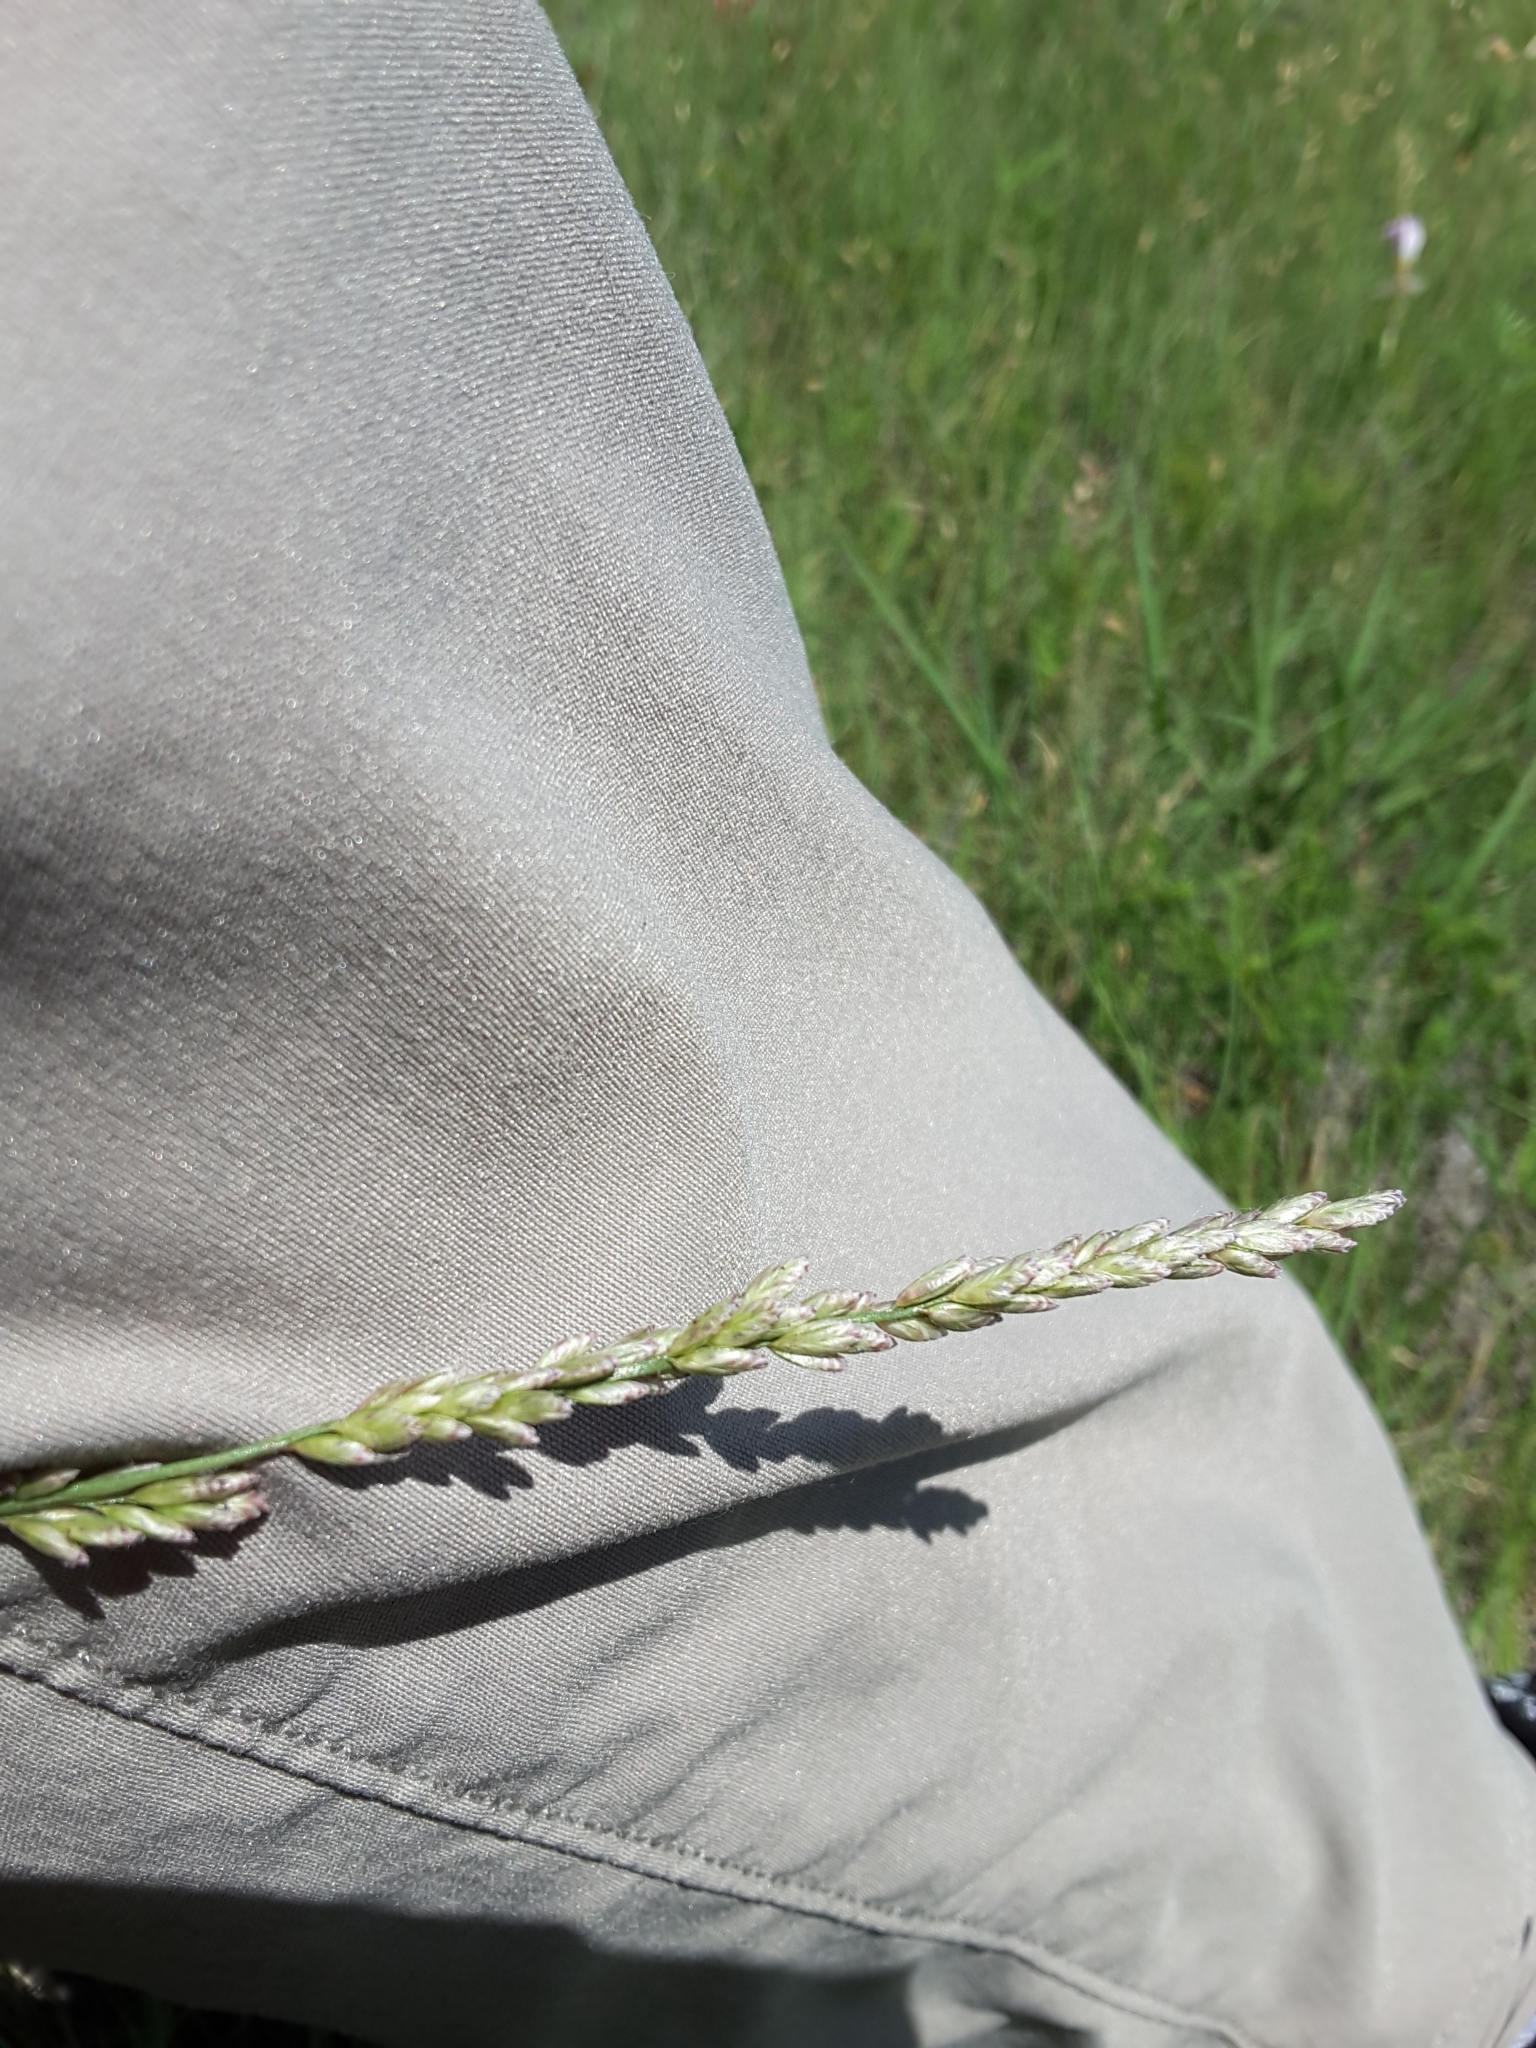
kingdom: Plantae
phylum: Tracheophyta
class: Liliopsida
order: Poales
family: Poaceae
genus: Tridens
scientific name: Tridens albescens
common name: White tridens
